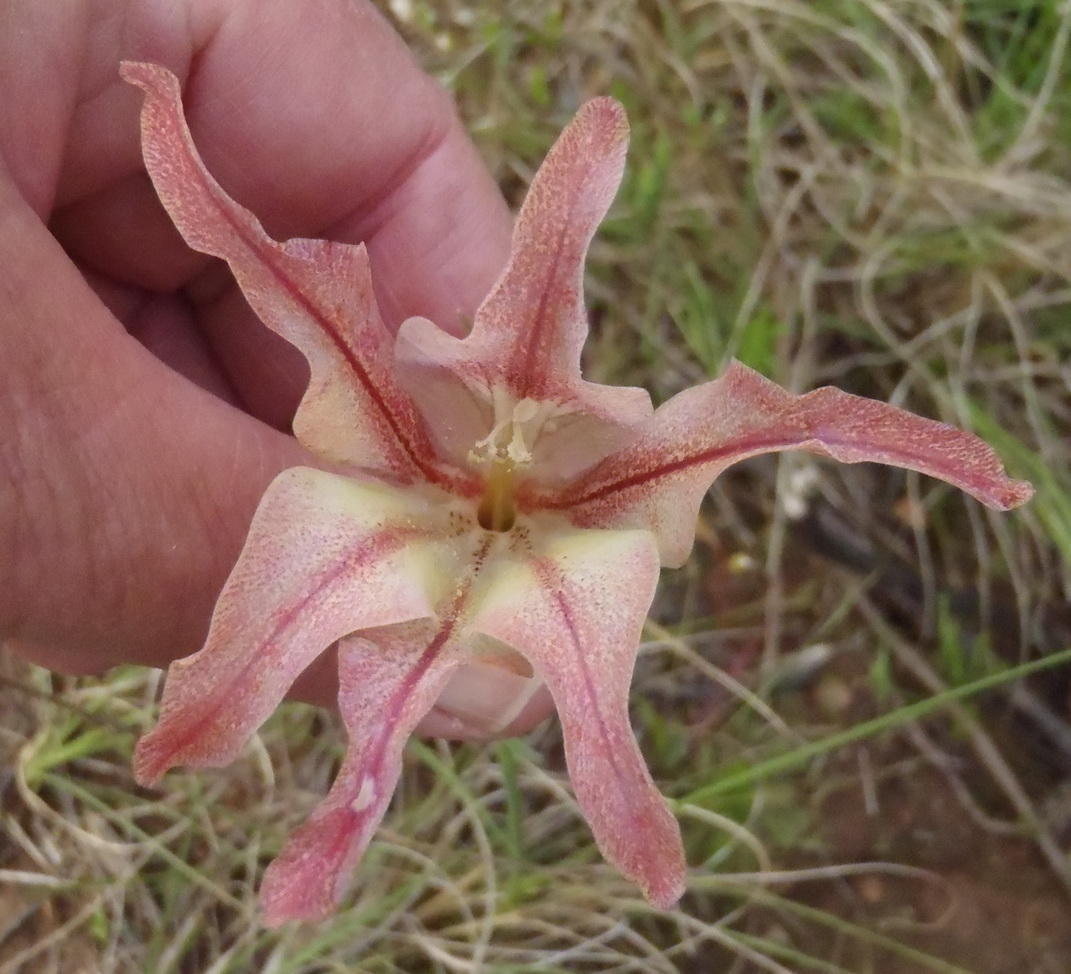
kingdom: Plantae
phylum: Tracheophyta
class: Liliopsida
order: Asparagales
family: Iridaceae
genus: Gladiolus
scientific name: Gladiolus liliaceus
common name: Large brown afrikaner
